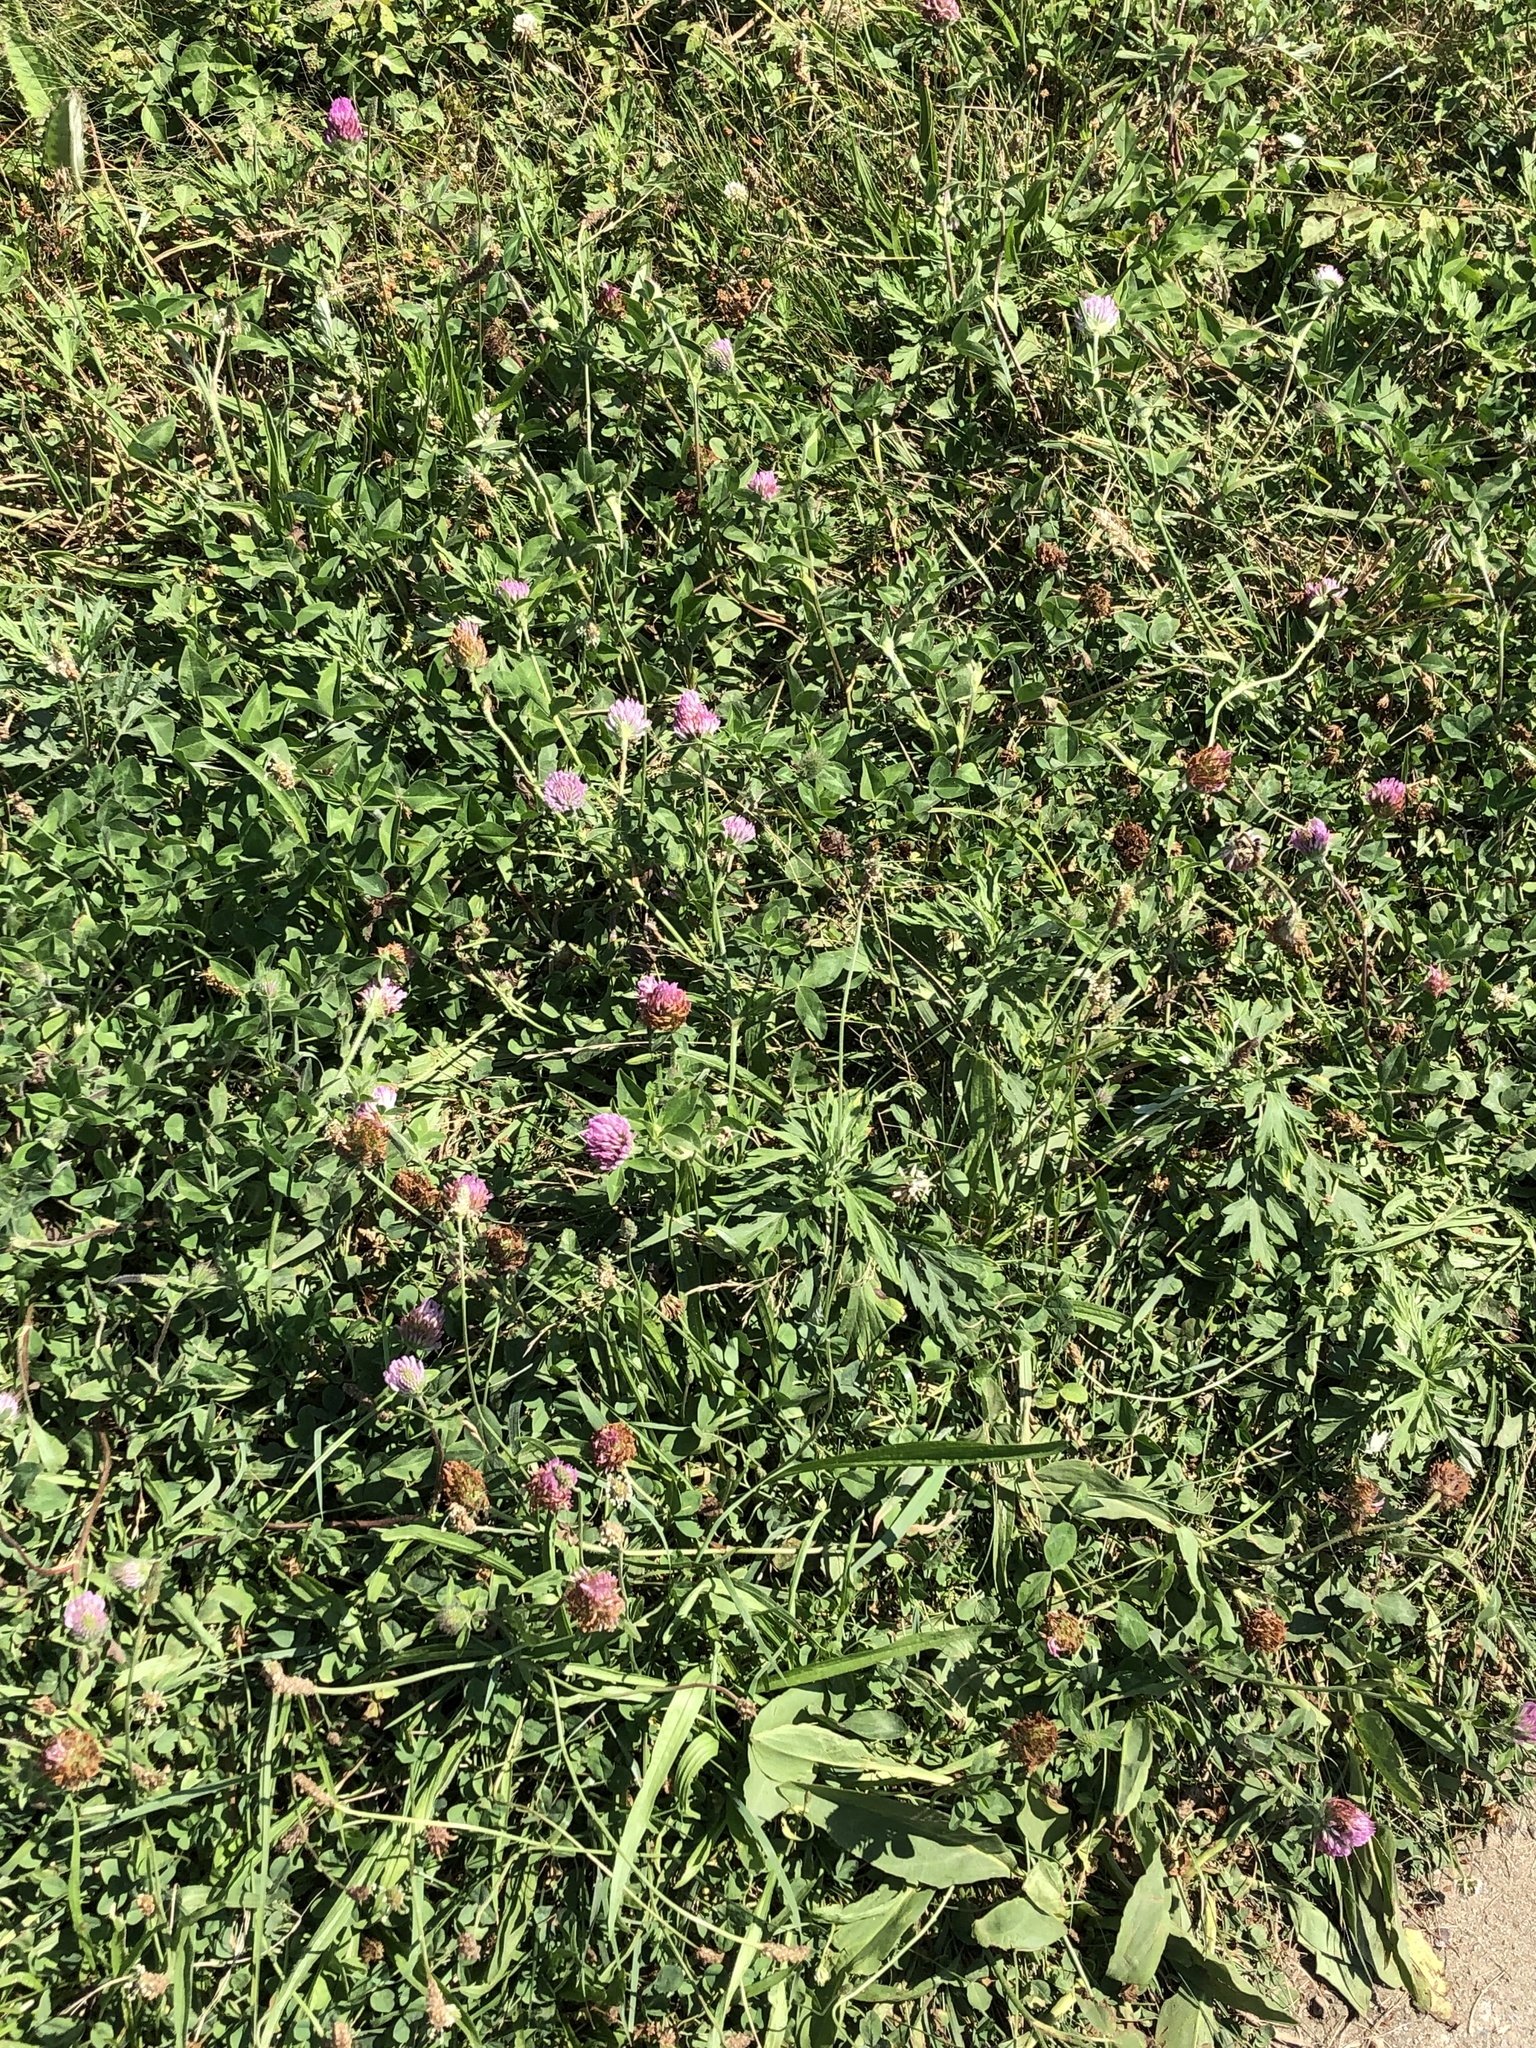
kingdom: Plantae
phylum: Tracheophyta
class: Magnoliopsida
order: Fabales
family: Fabaceae
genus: Trifolium
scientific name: Trifolium pratense
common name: Red clover
